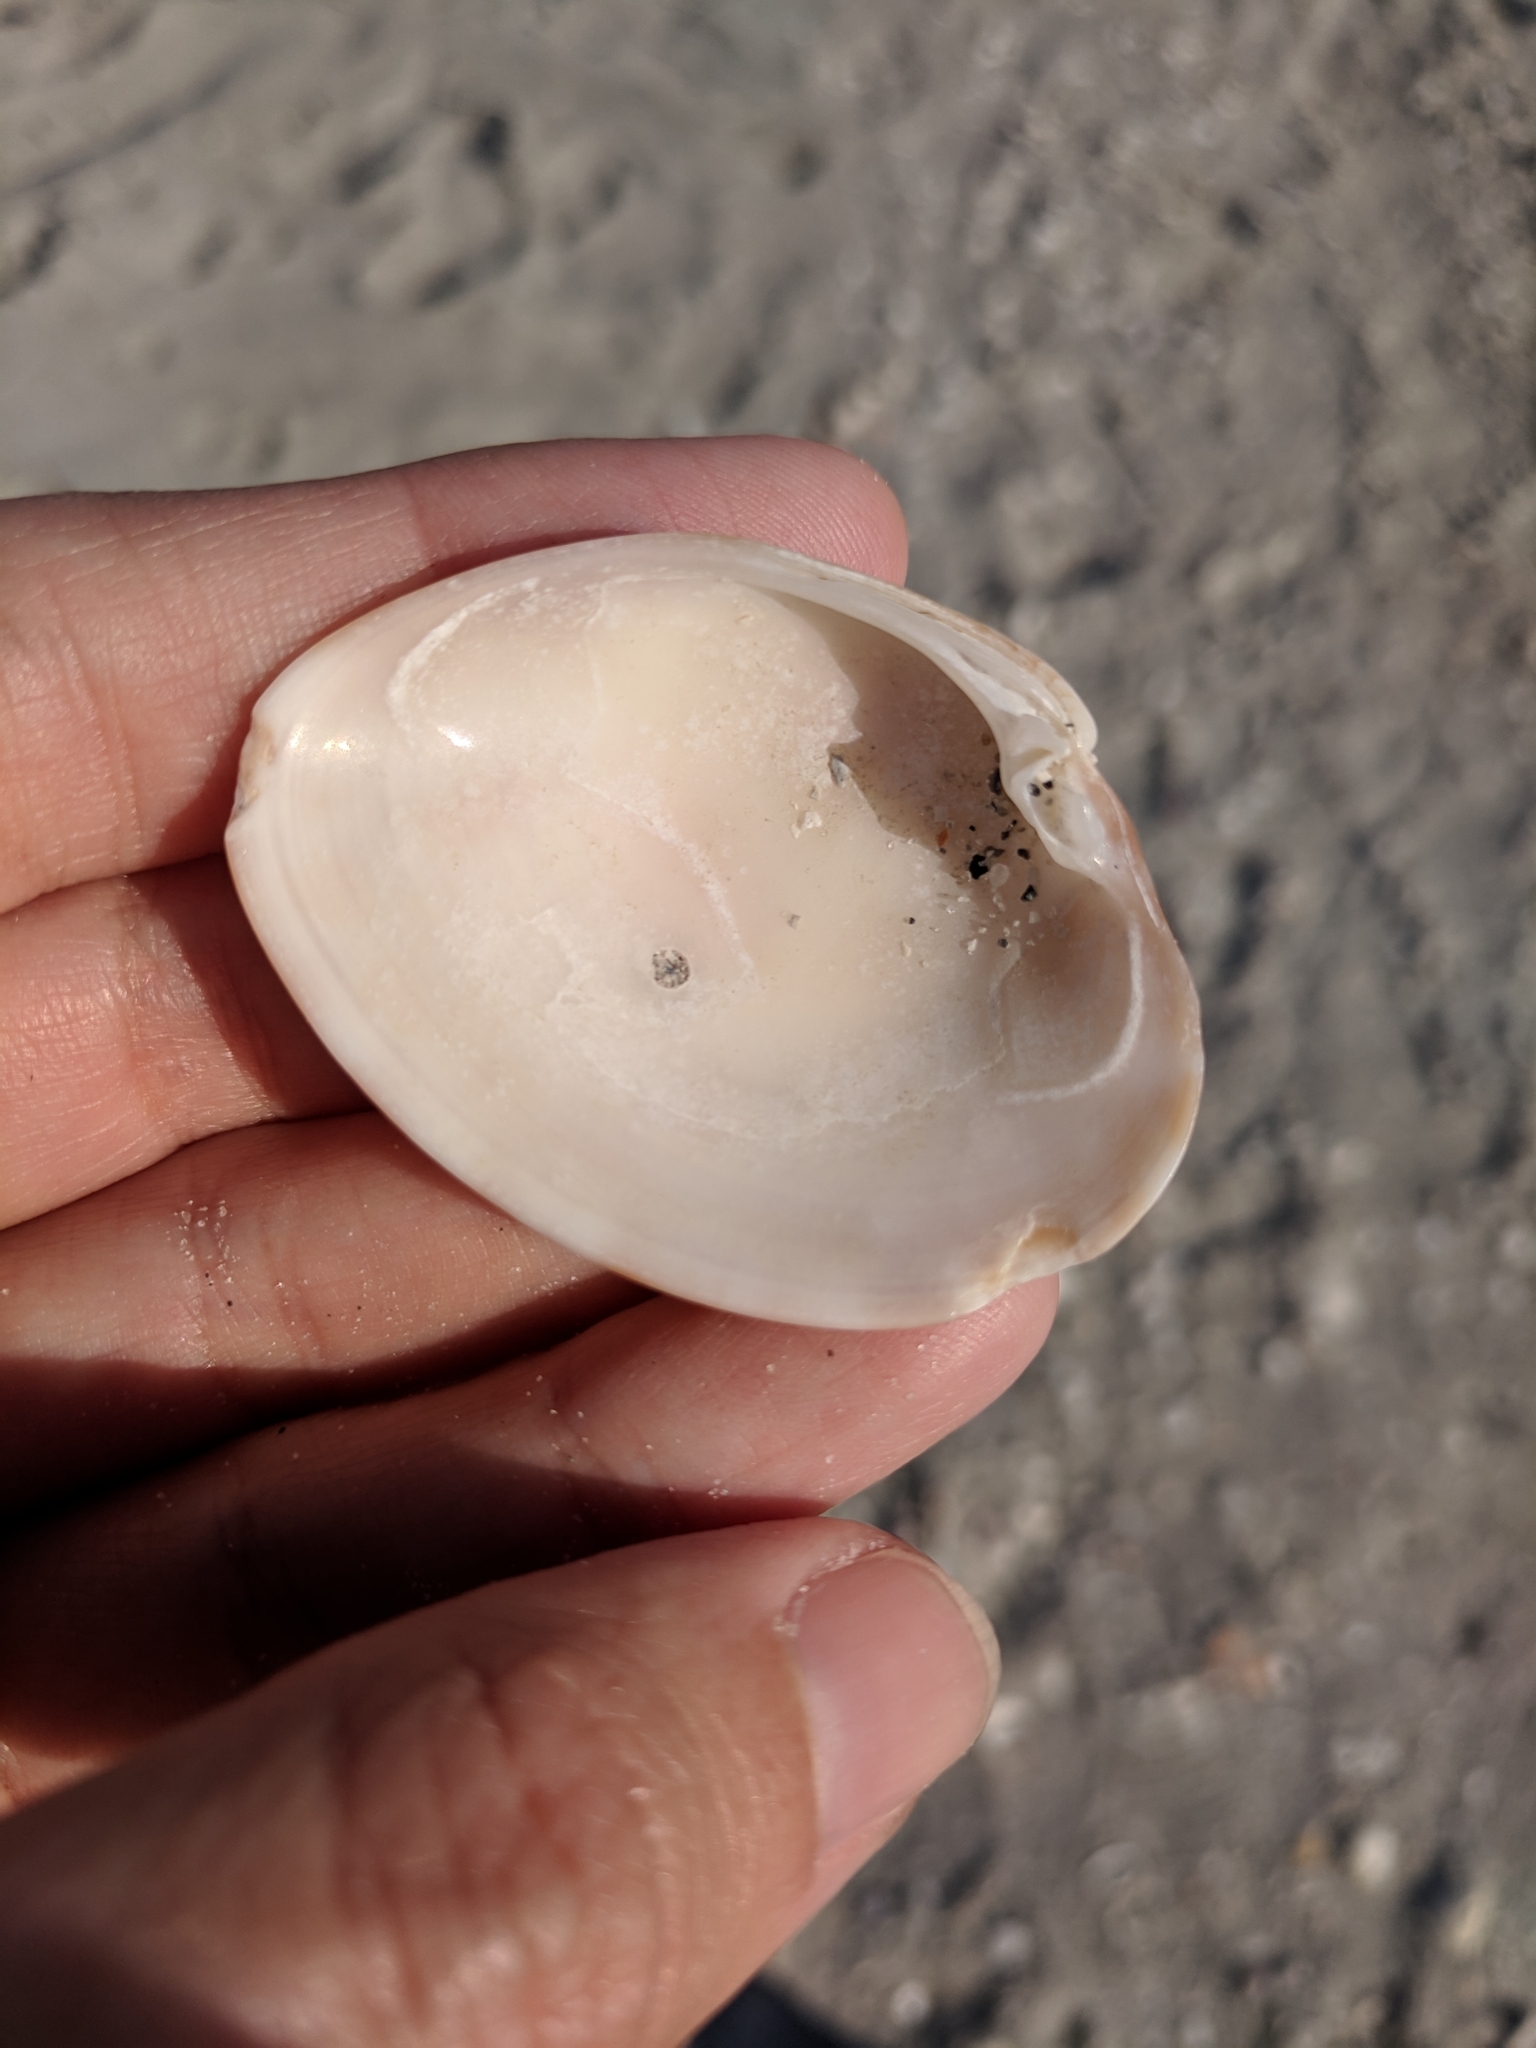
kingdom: Animalia
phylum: Mollusca
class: Bivalvia
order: Venerida
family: Veneridae
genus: Megapitaria
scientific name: Megapitaria maculata
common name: Calico clam
